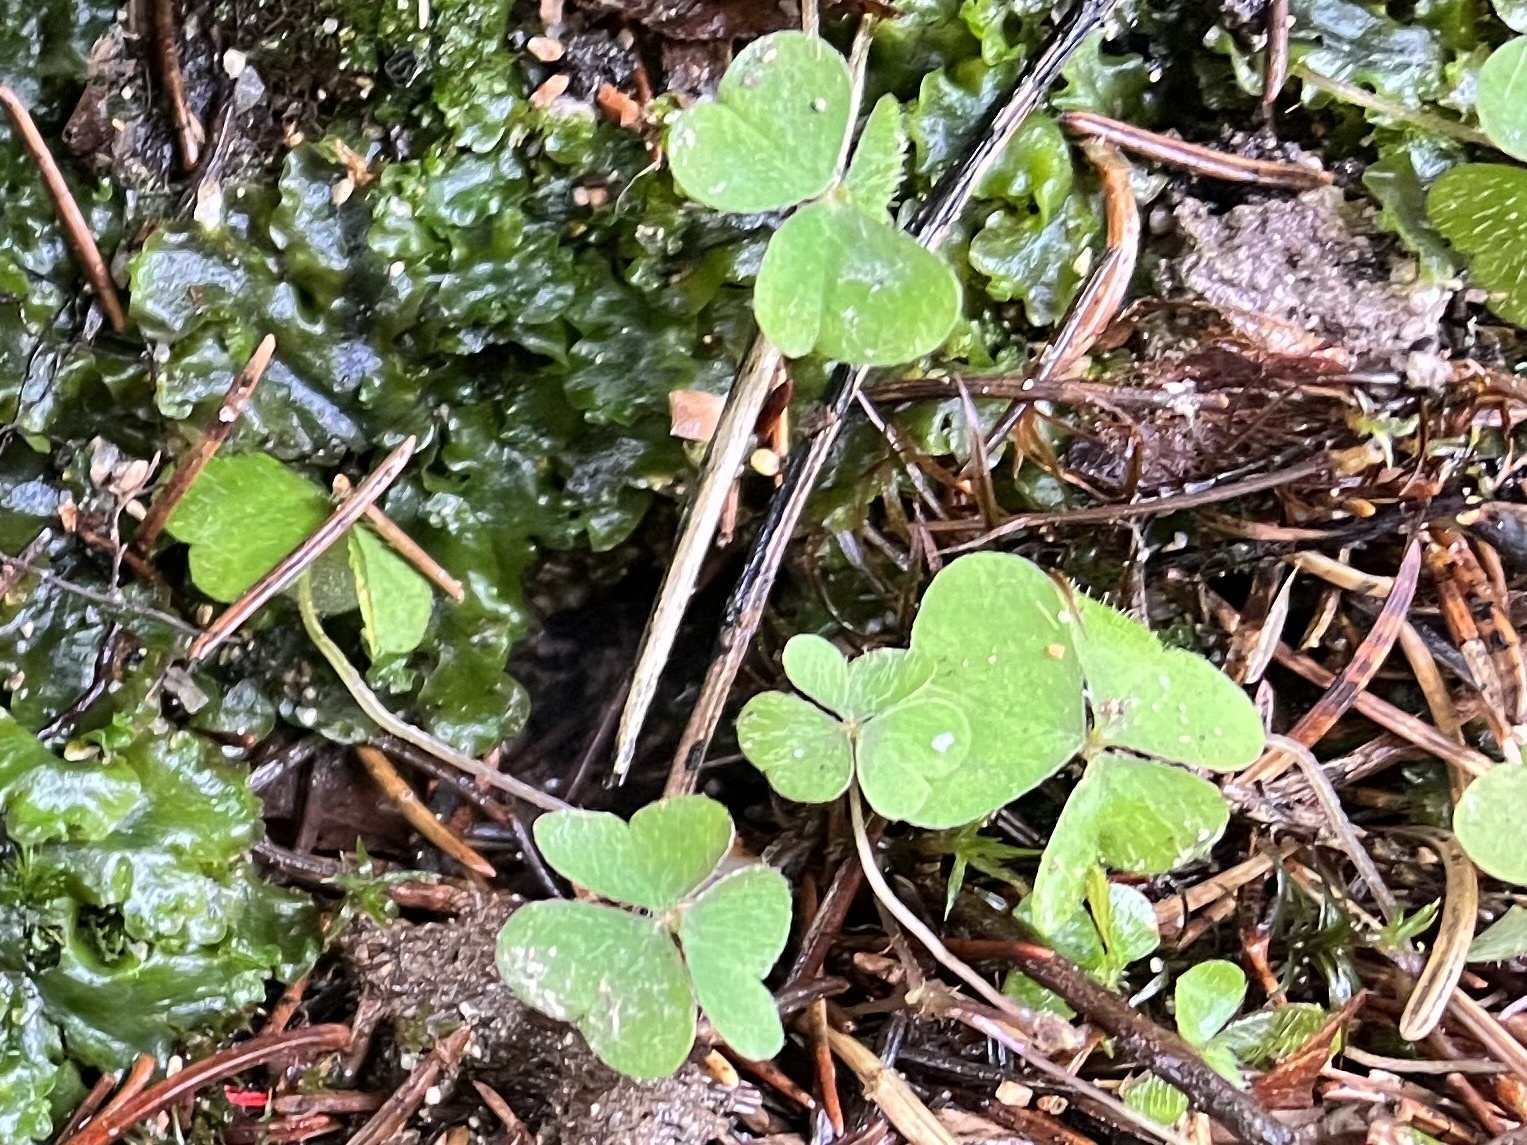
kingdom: Plantae
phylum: Tracheophyta
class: Magnoliopsida
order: Oxalidales
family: Oxalidaceae
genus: Oxalis
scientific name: Oxalis acetosella
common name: Wood-sorrel
